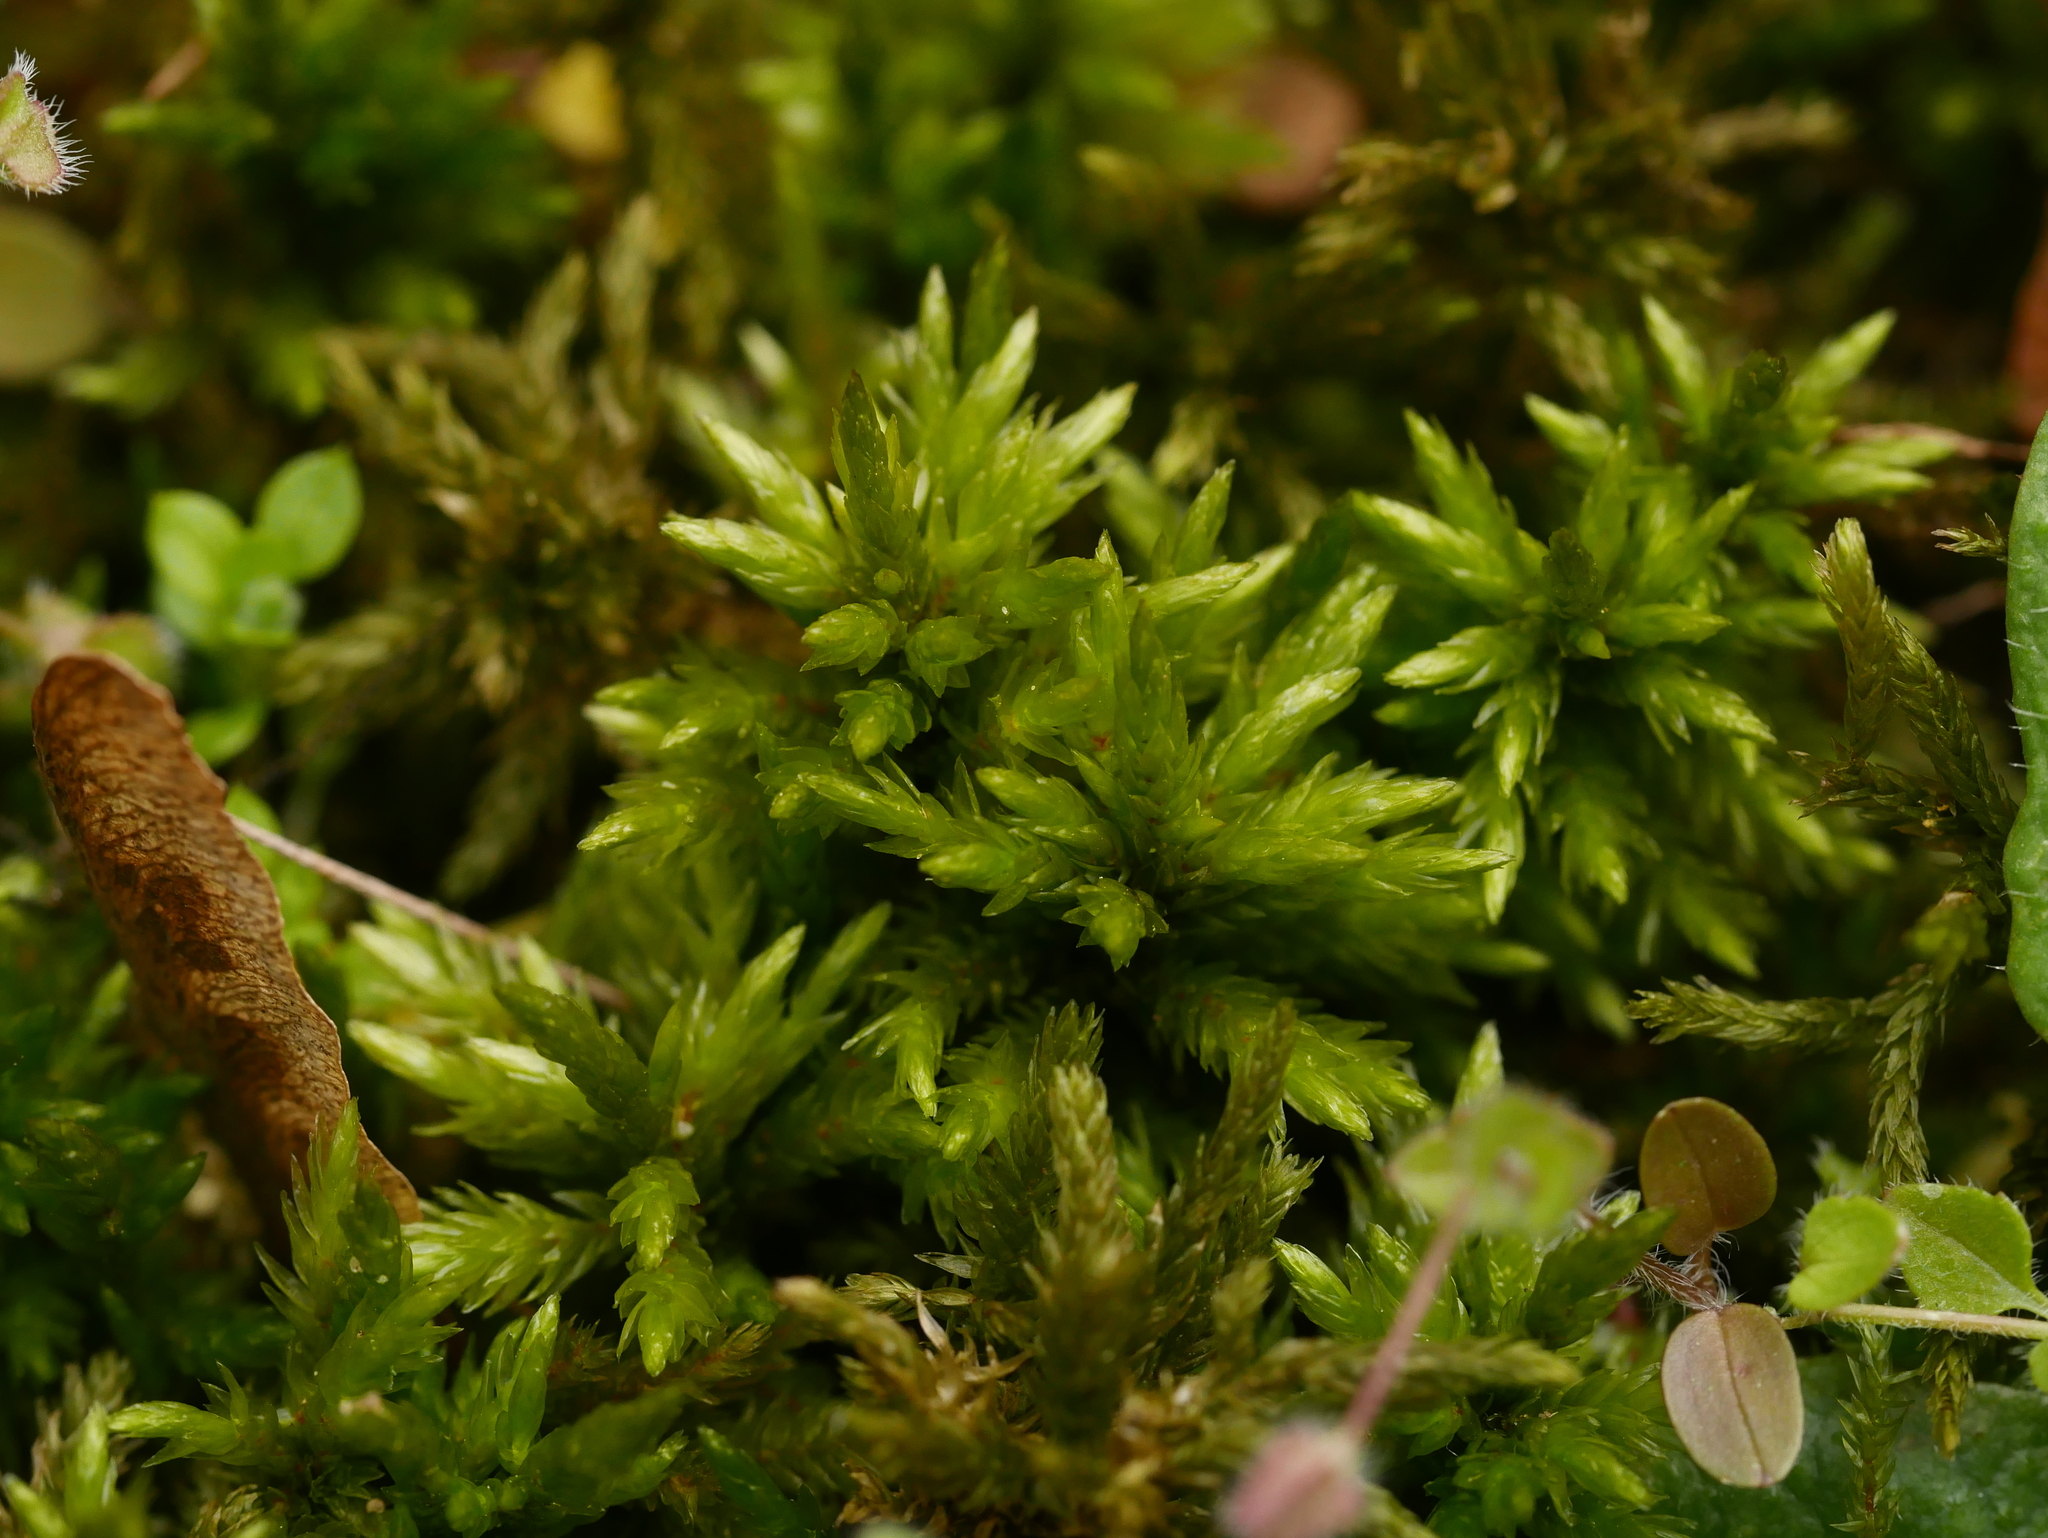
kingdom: Plantae
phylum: Bryophyta
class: Bryopsida
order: Hypnales
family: Climaciaceae
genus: Climacium
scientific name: Climacium dendroides
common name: Northern tree moss
